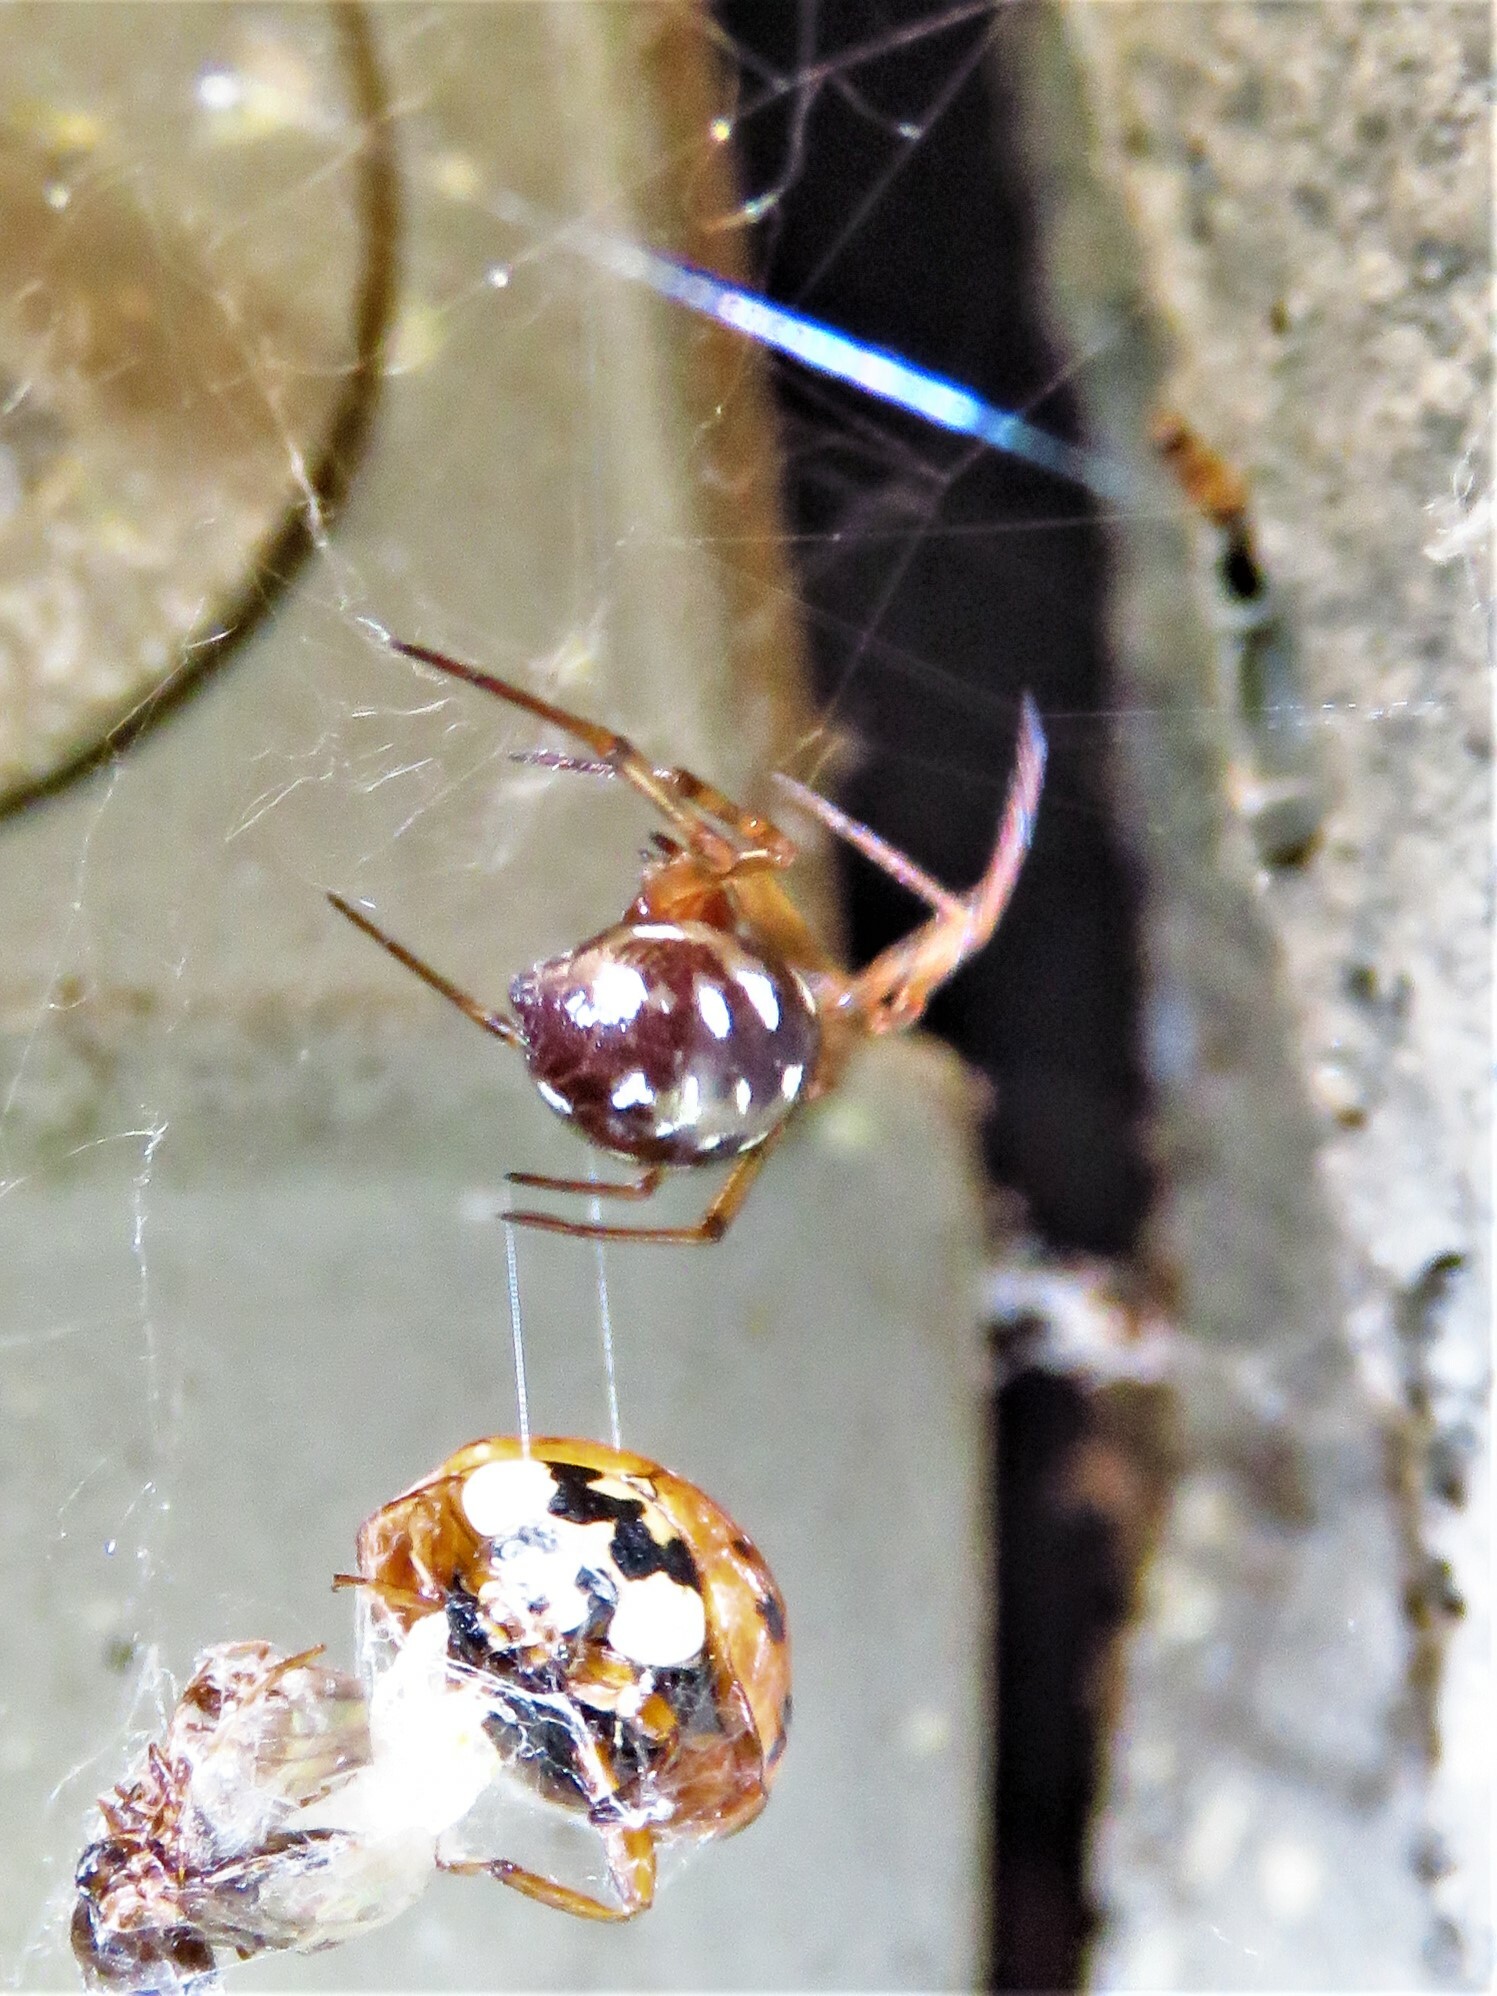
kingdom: Animalia
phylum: Arthropoda
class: Arachnida
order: Araneae
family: Theridiidae
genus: Steatoda
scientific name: Steatoda triangulosa
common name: Triangulate bud spider
